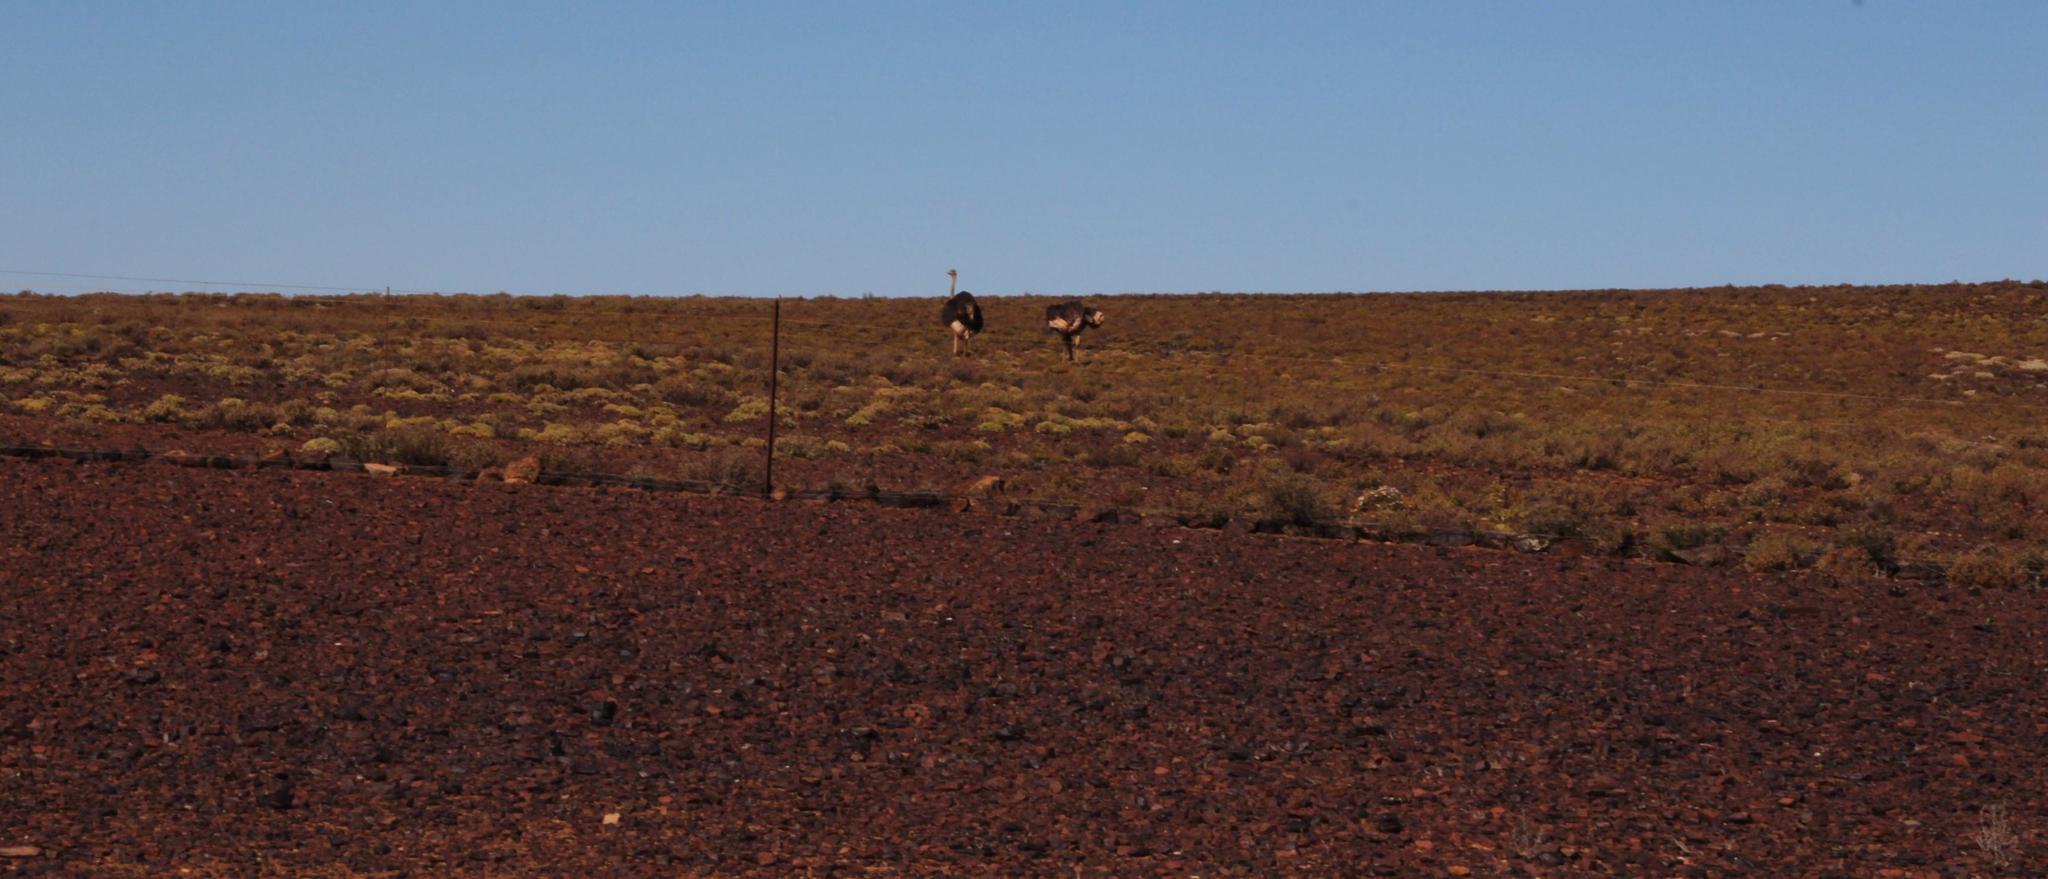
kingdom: Animalia
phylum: Chordata
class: Aves
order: Struthioniformes
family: Struthionidae
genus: Struthio
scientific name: Struthio camelus
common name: Common ostrich
